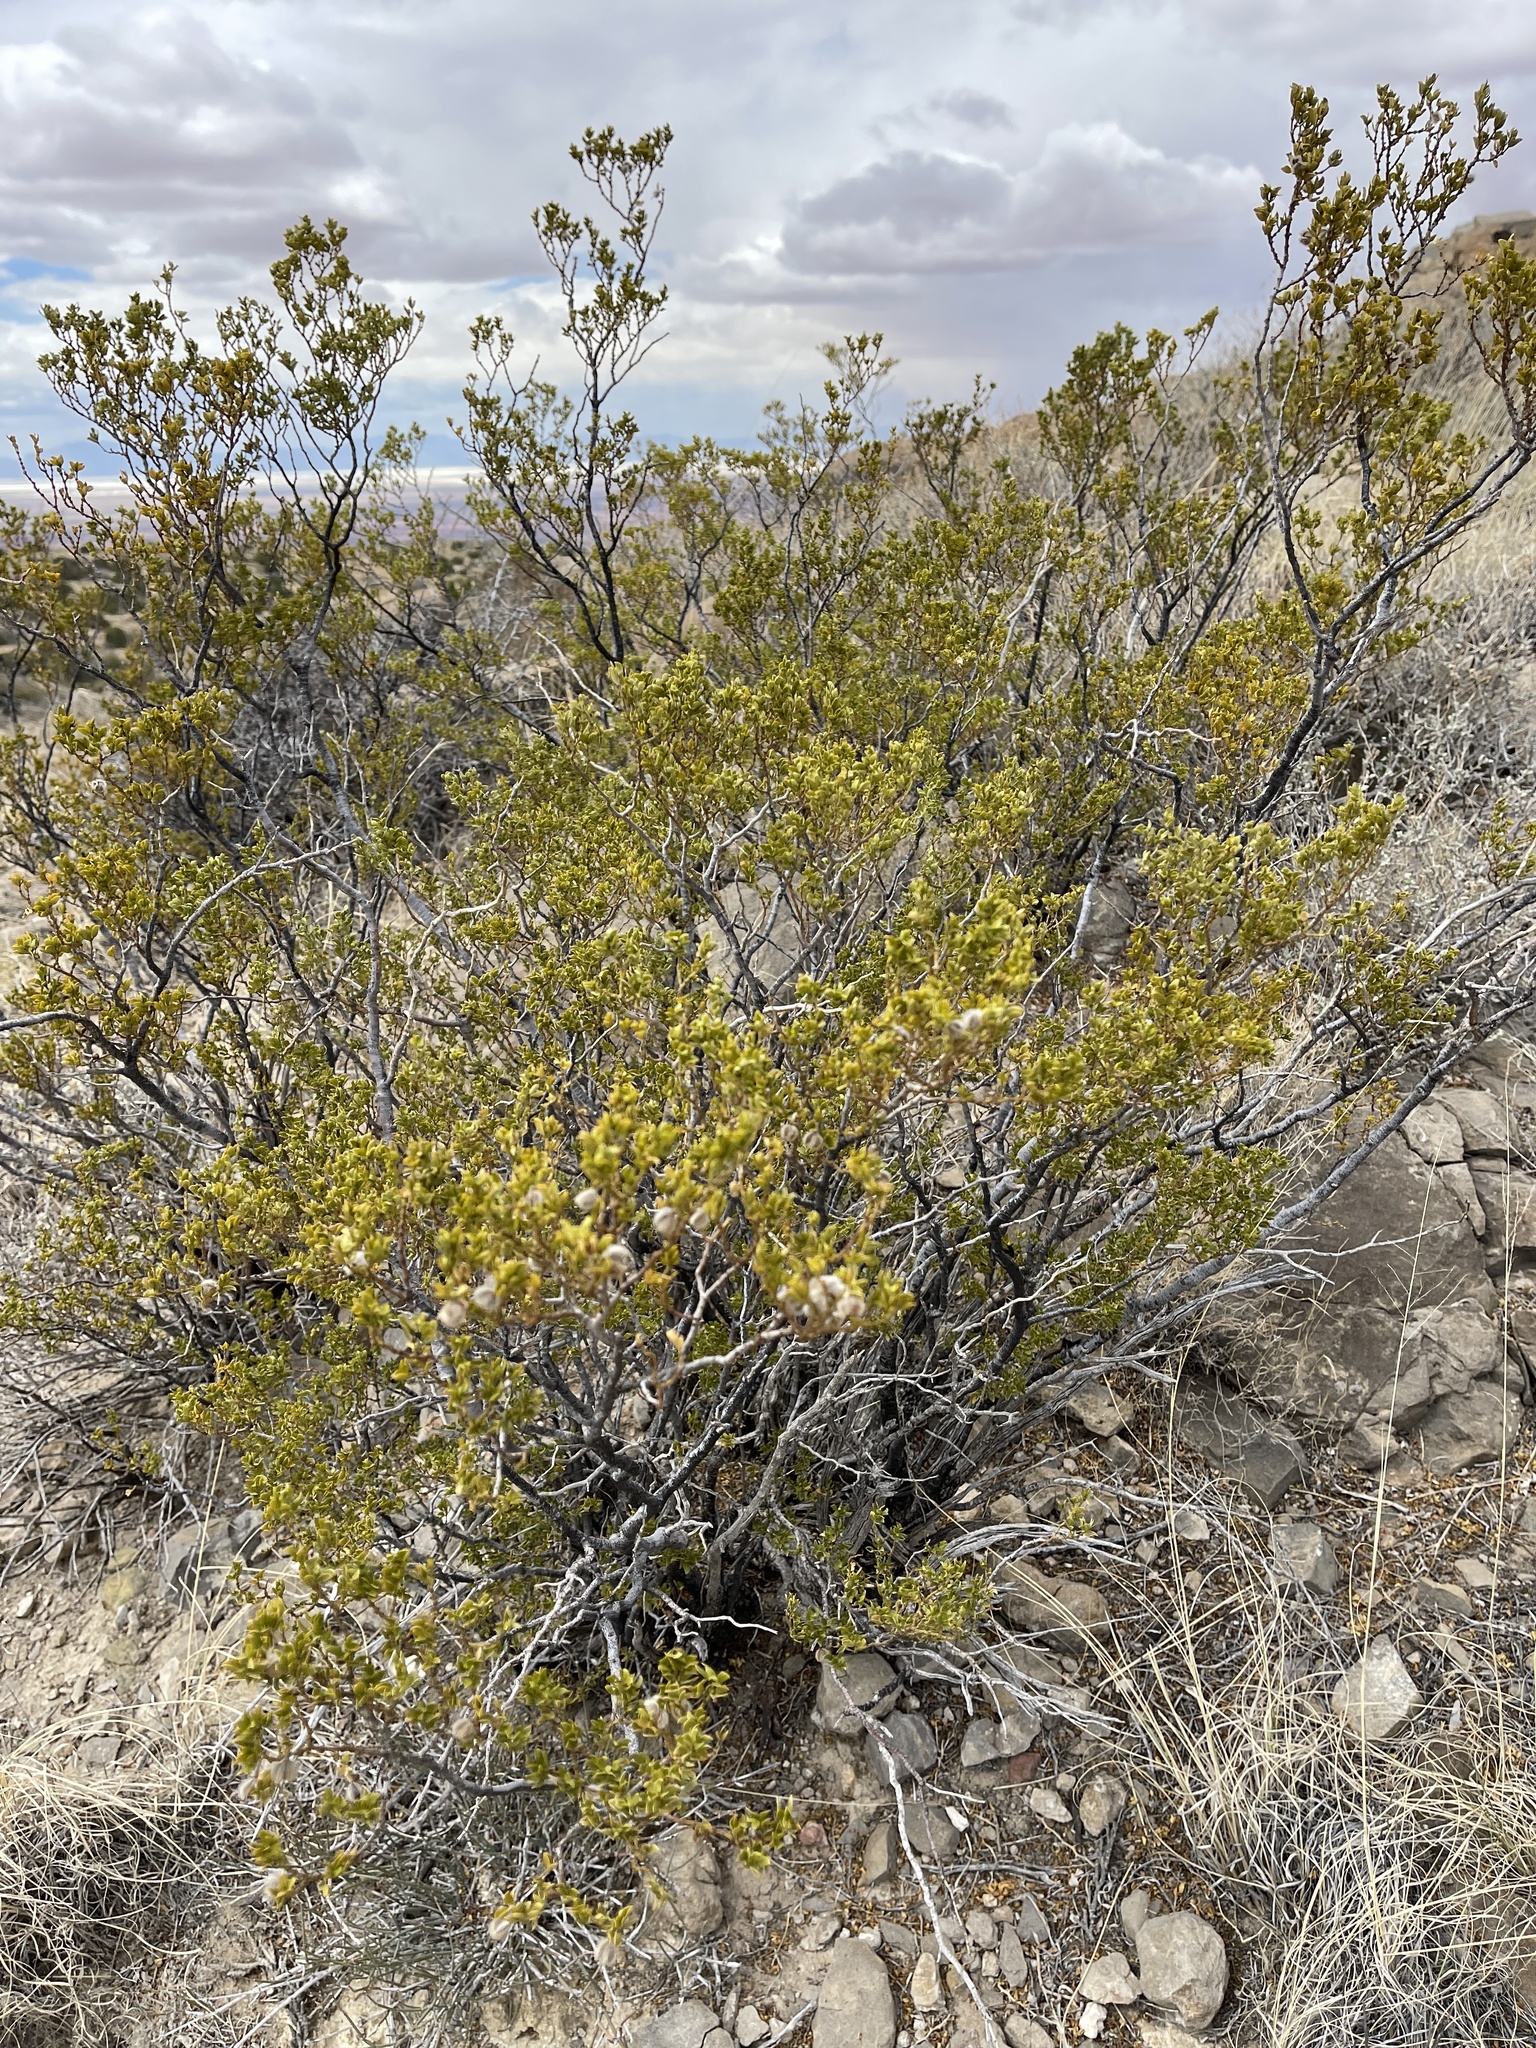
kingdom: Plantae
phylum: Tracheophyta
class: Magnoliopsida
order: Zygophyllales
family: Zygophyllaceae
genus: Larrea
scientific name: Larrea tridentata
